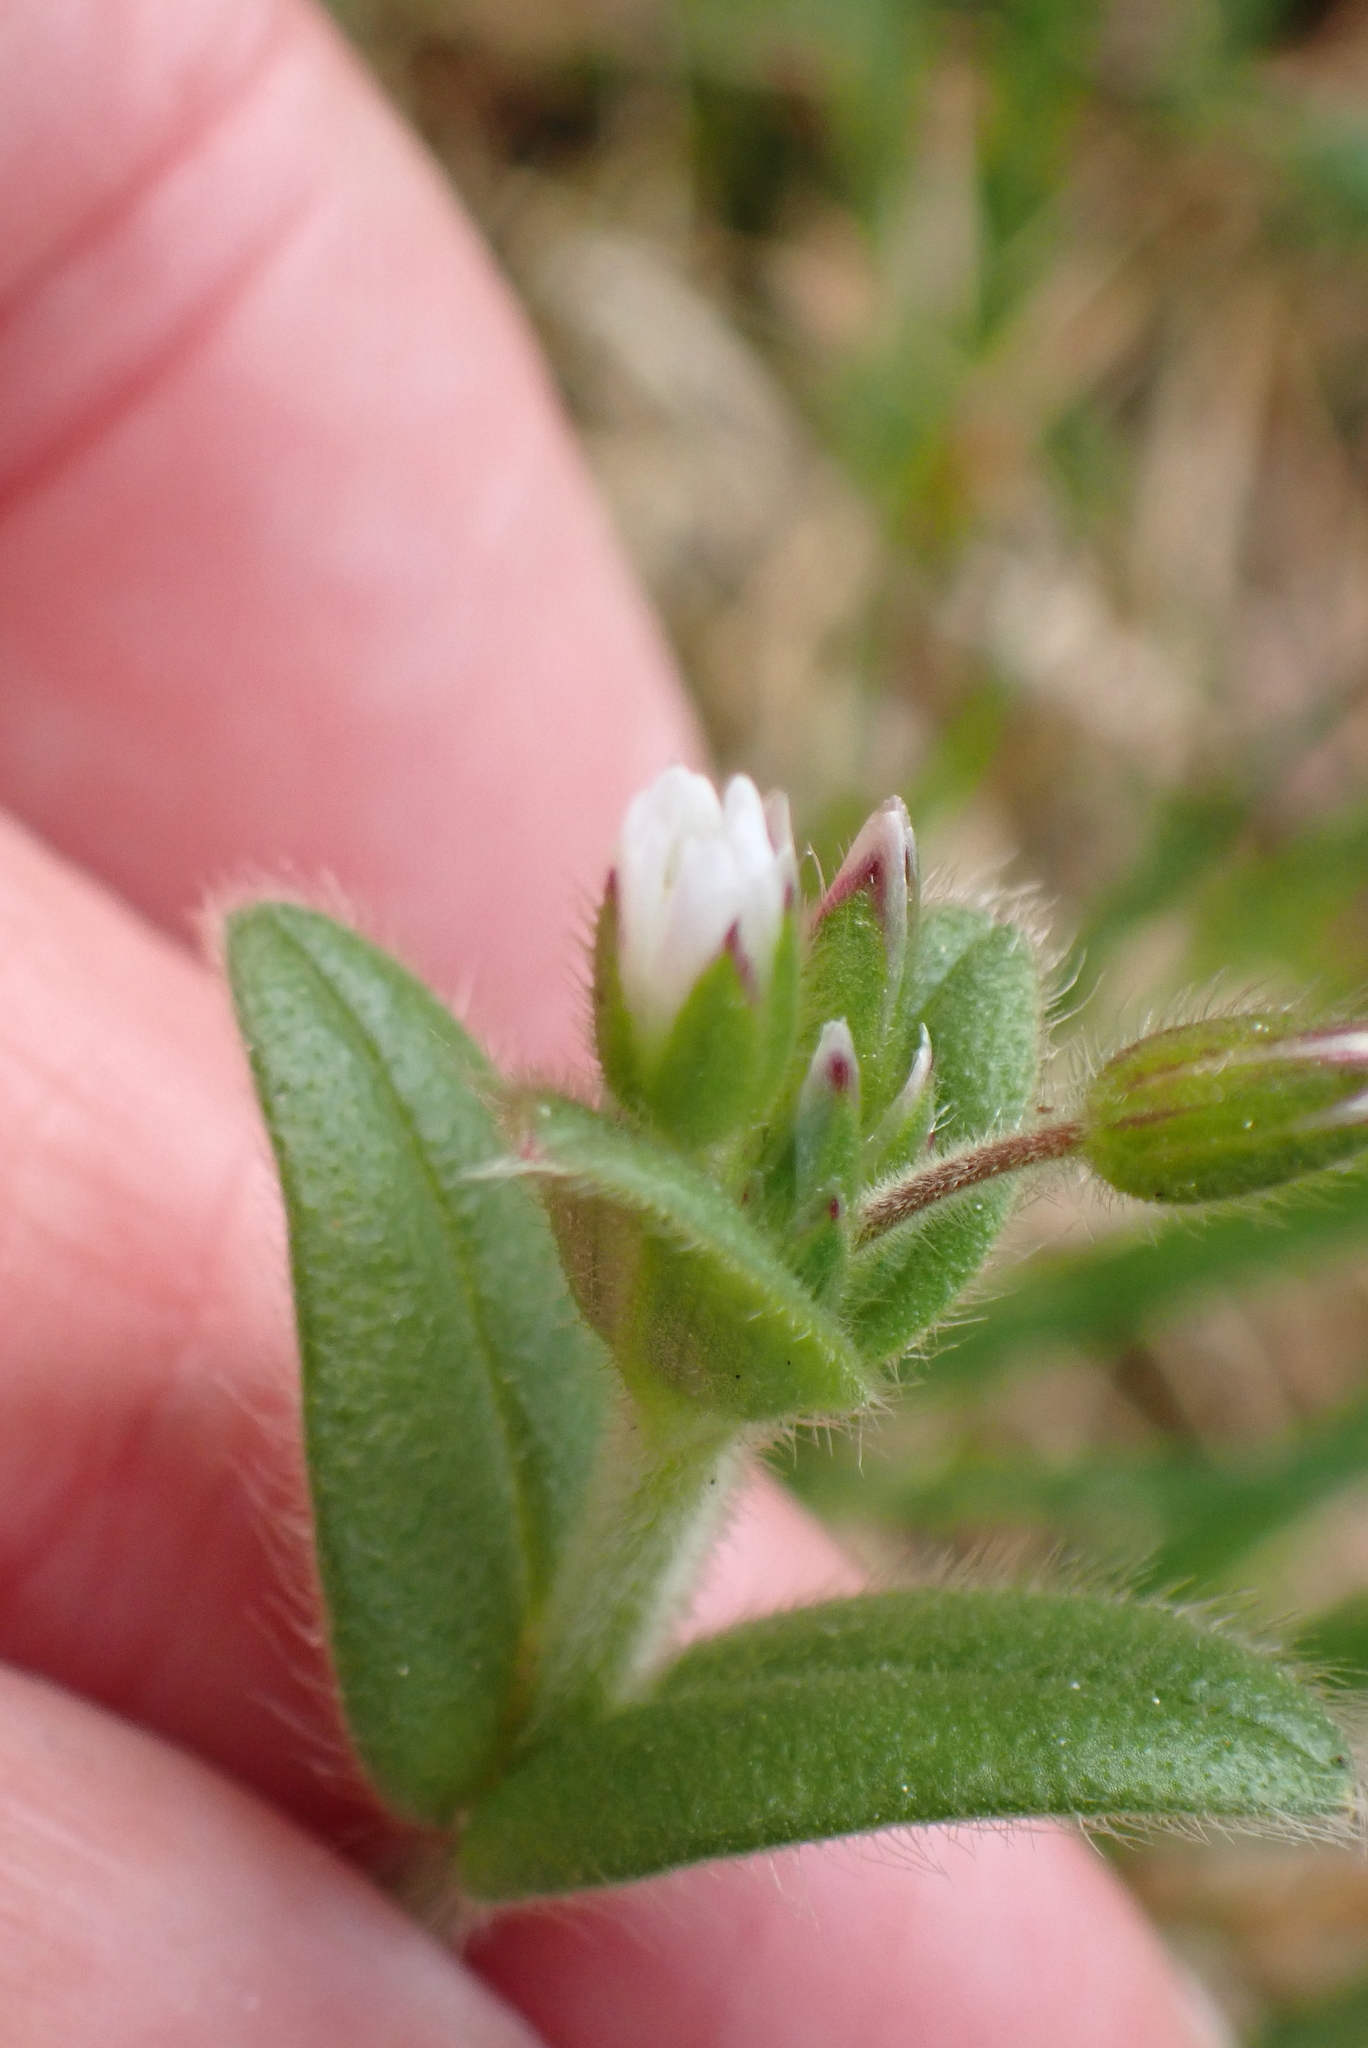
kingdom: Plantae
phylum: Tracheophyta
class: Magnoliopsida
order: Caryophyllales
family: Caryophyllaceae
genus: Cerastium
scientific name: Cerastium glomeratum
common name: Sticky chickweed
